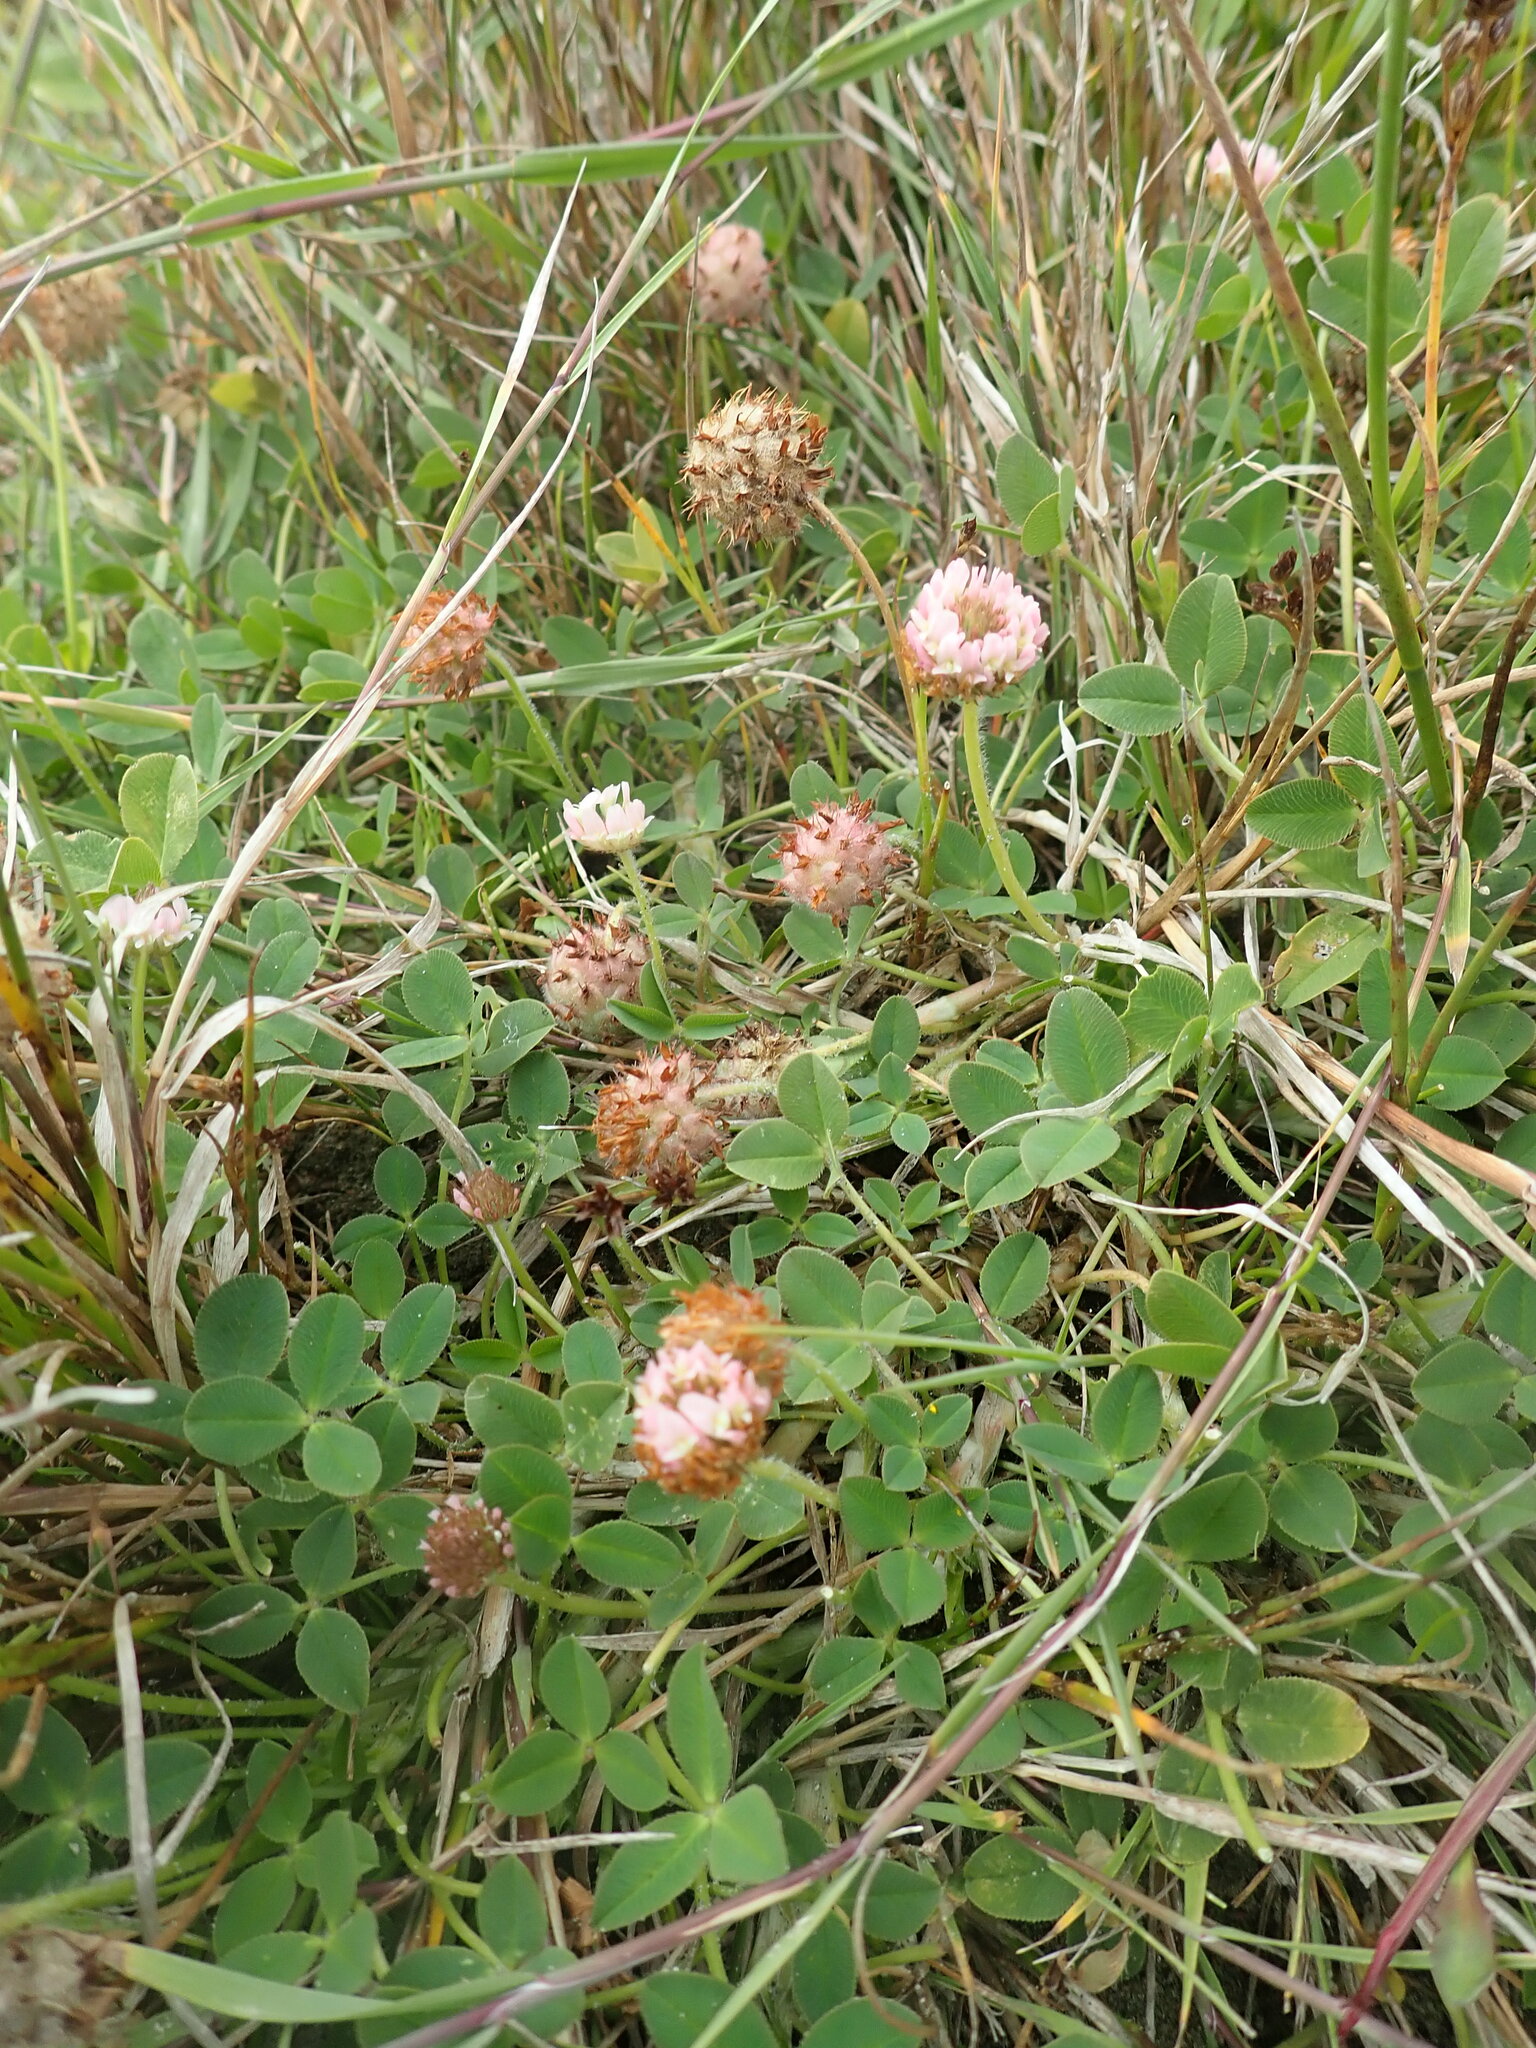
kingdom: Plantae
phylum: Tracheophyta
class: Magnoliopsida
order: Fabales
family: Fabaceae
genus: Trifolium
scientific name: Trifolium fragiferum
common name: Strawberry clover
